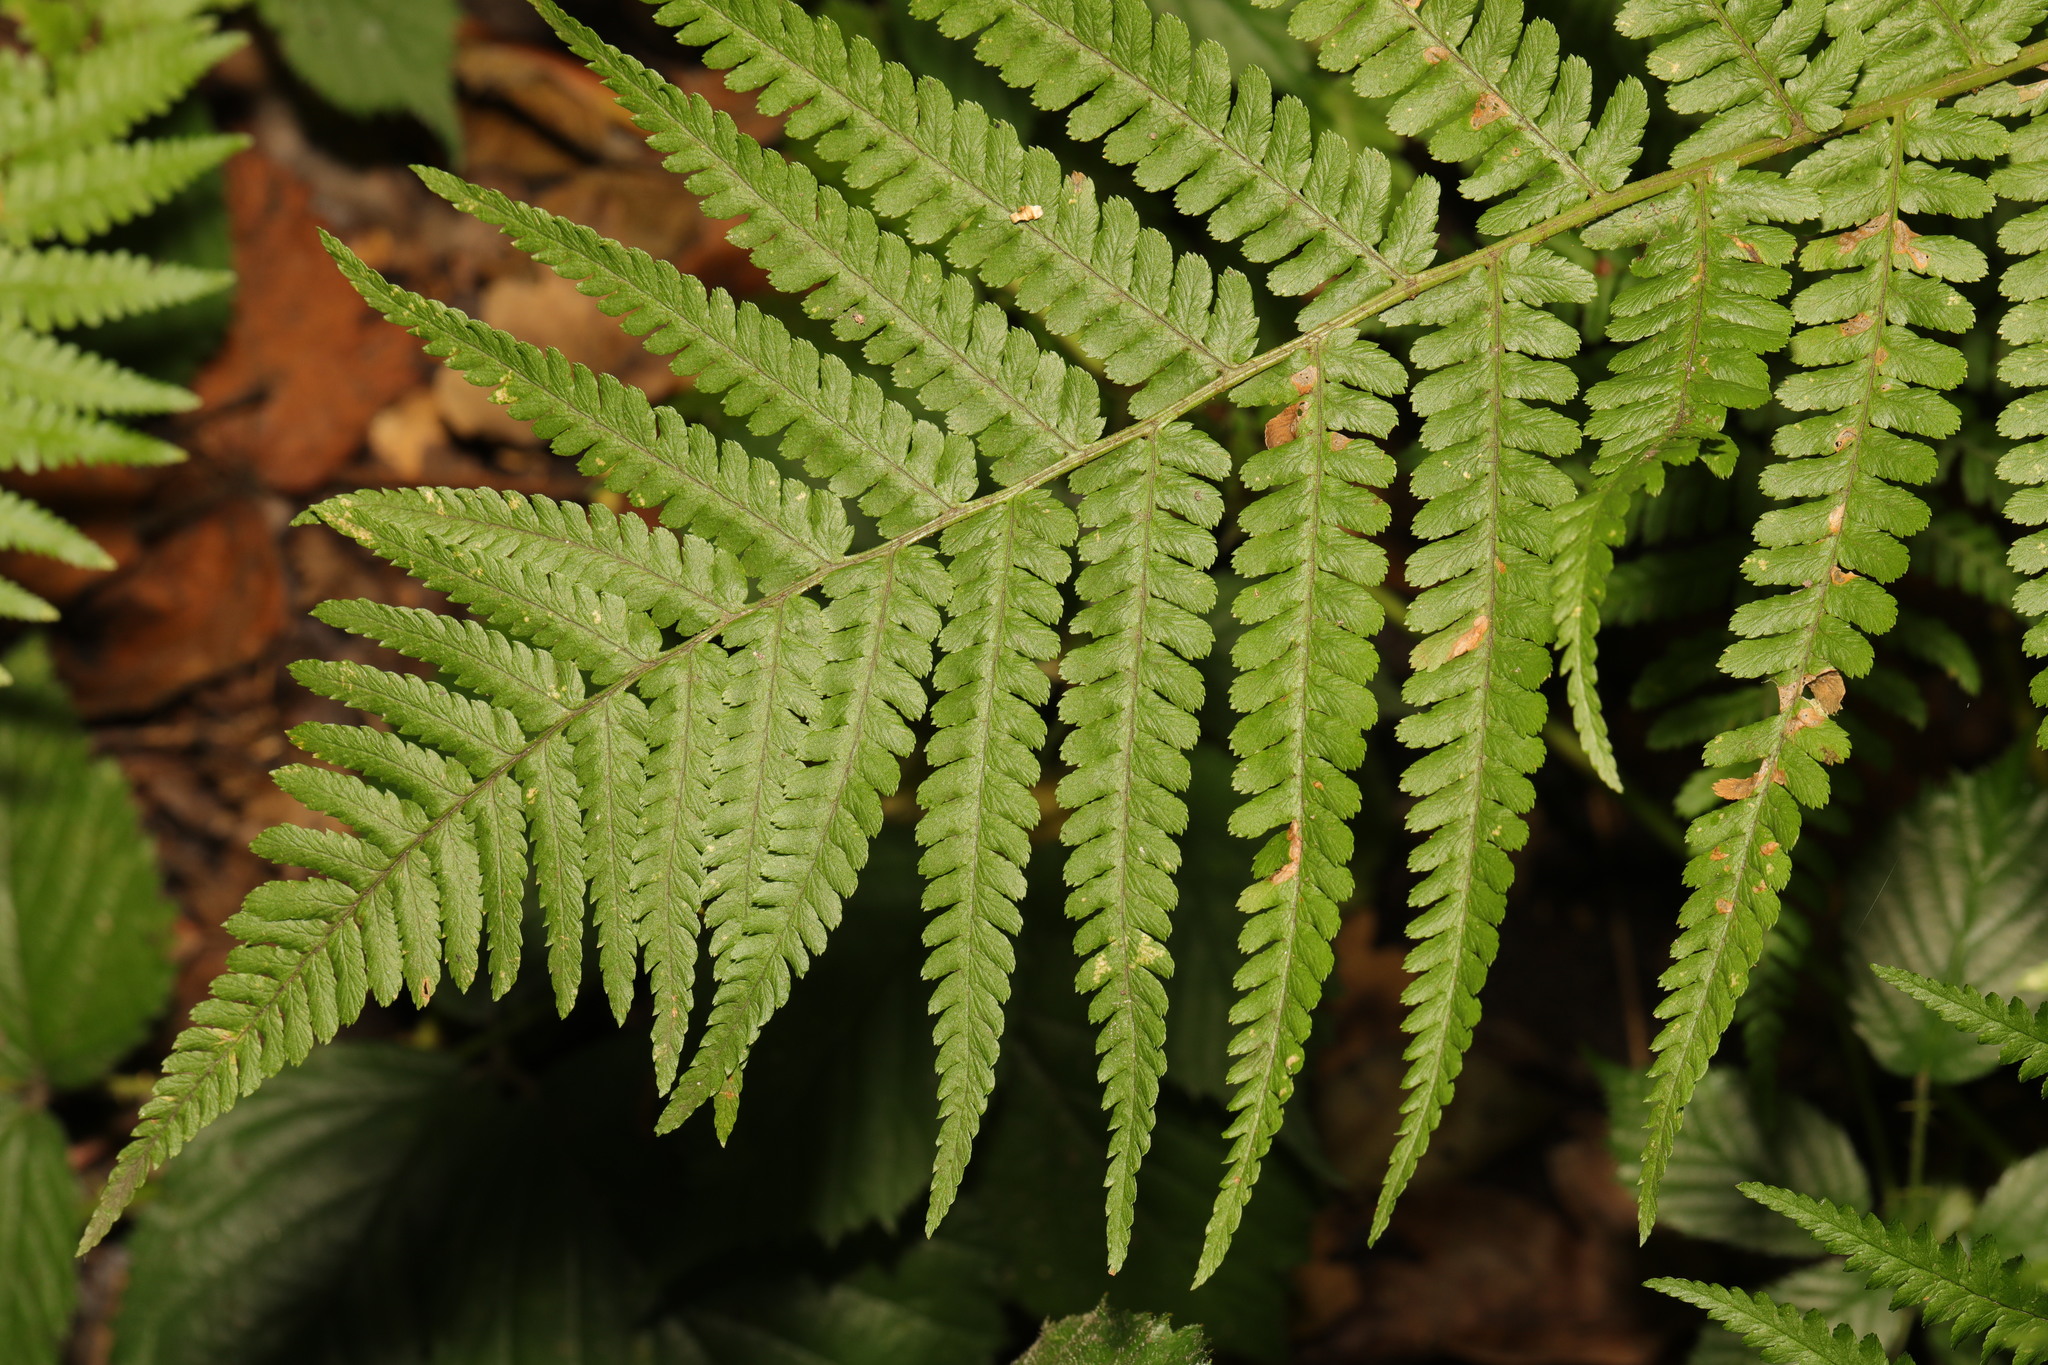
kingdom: Plantae
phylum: Tracheophyta
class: Polypodiopsida
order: Polypodiales
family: Dryopteridaceae
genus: Dryopteris
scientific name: Dryopteris filix-mas
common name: Male fern
